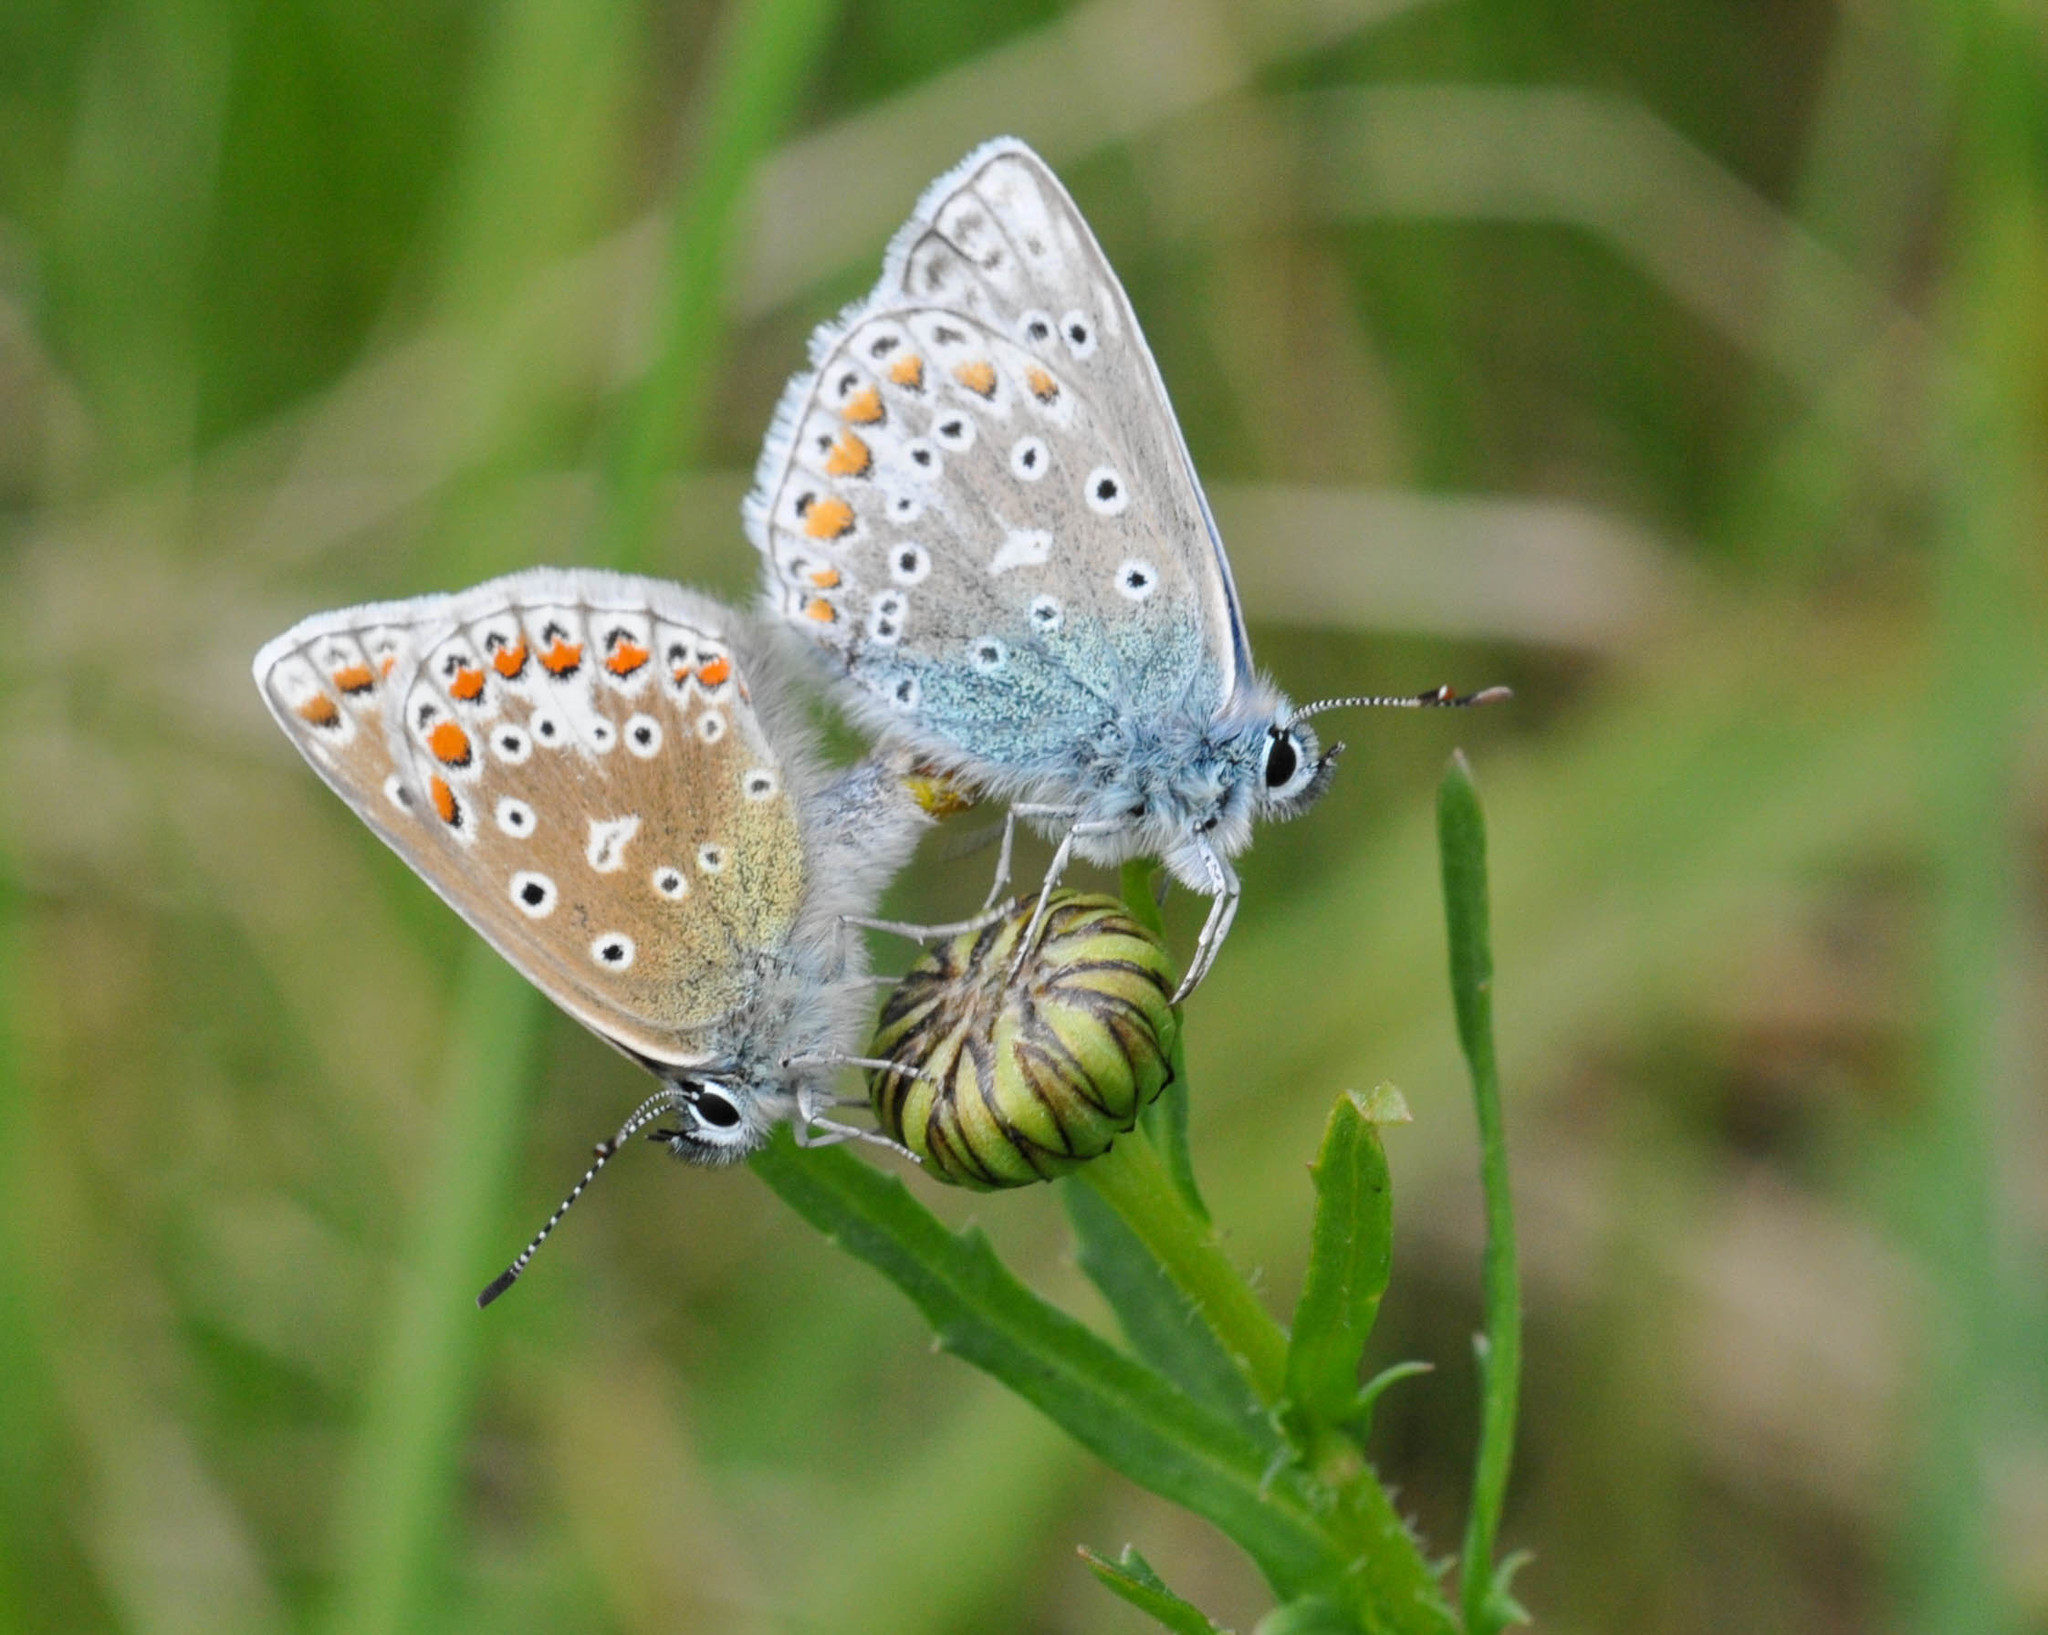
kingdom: Animalia
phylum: Arthropoda
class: Insecta
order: Lepidoptera
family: Lycaenidae
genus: Polyommatus
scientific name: Polyommatus icarus
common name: Common blue
